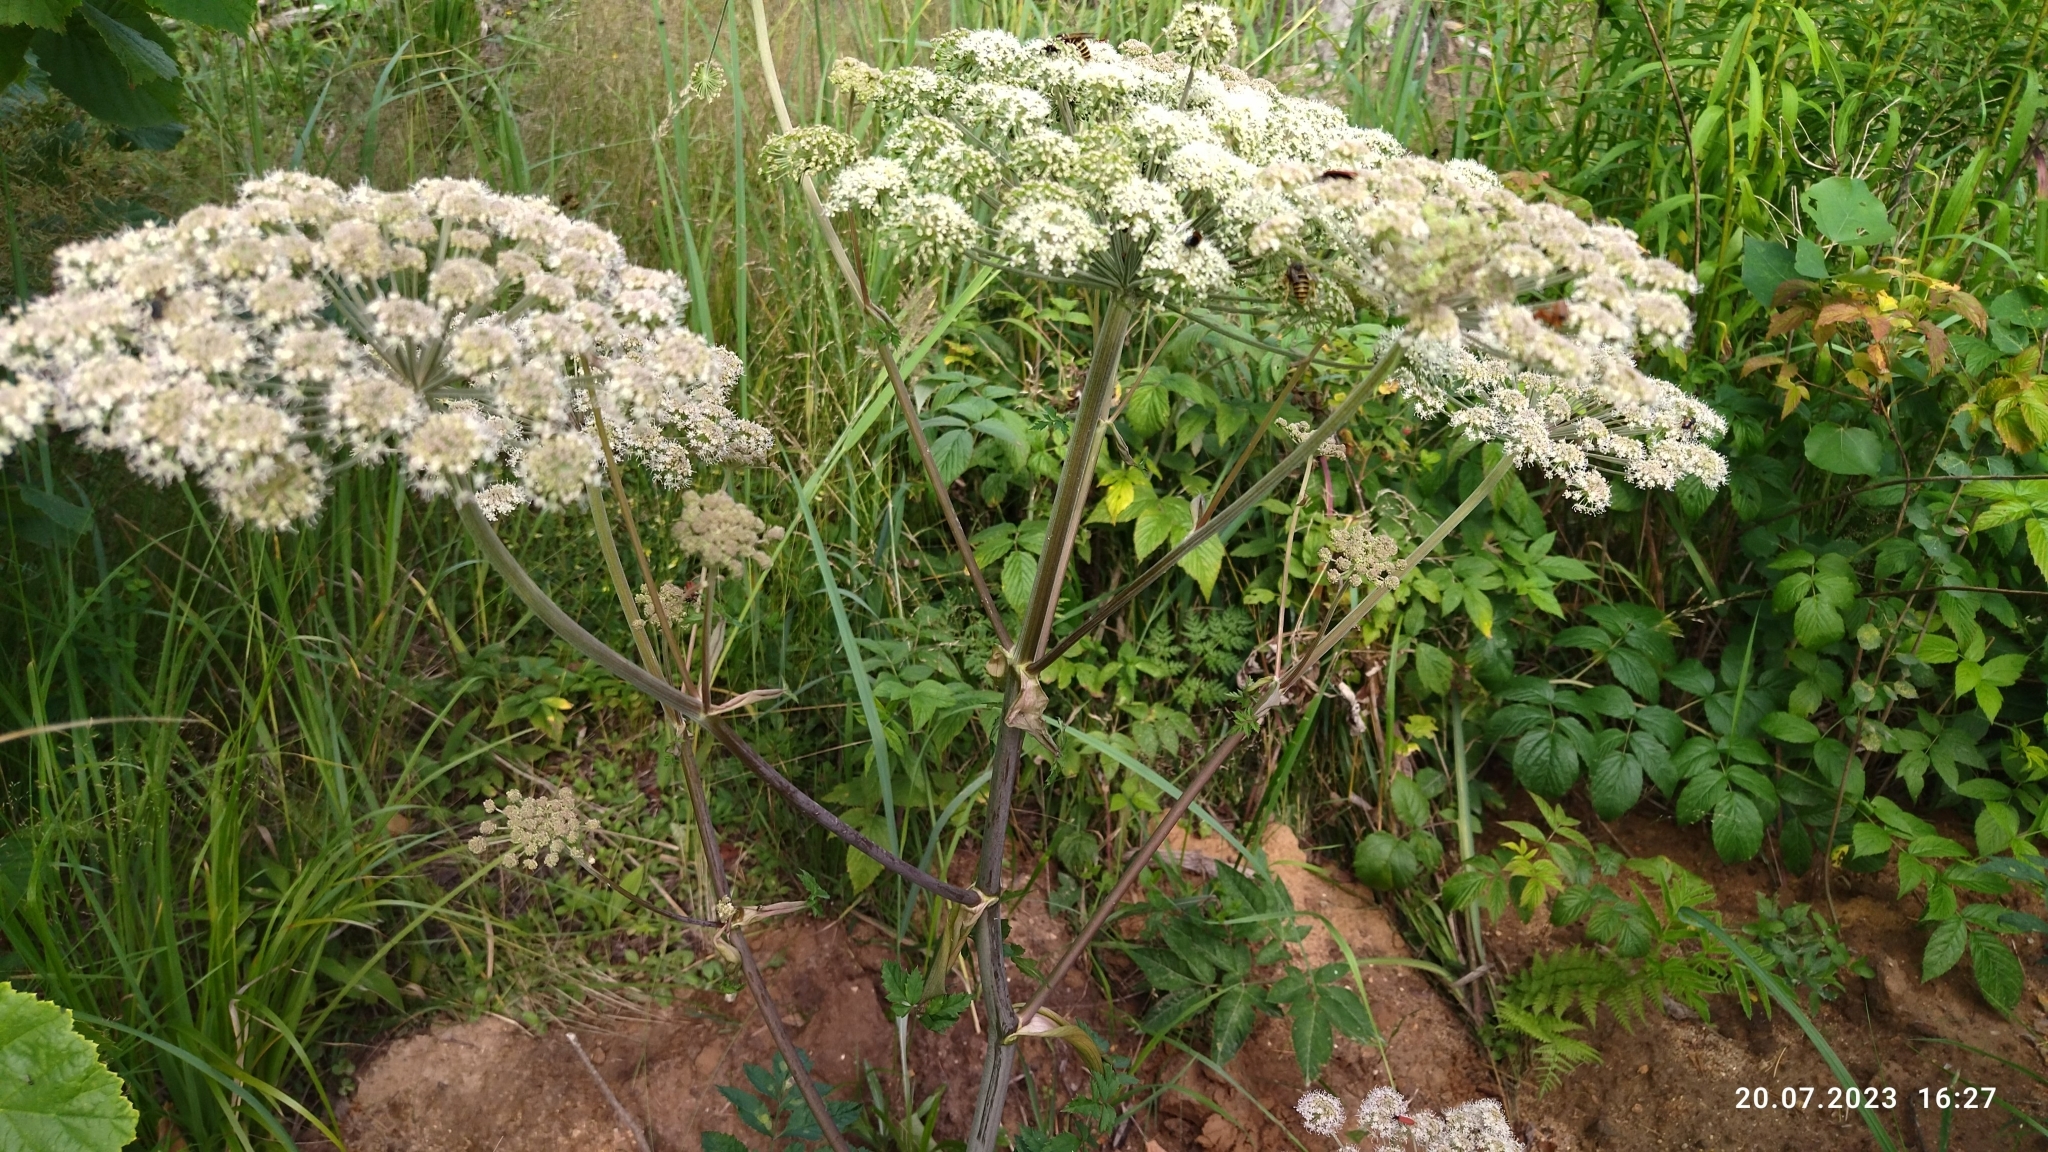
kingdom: Plantae
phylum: Tracheophyta
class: Magnoliopsida
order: Apiales
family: Apiaceae
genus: Angelica
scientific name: Angelica sylvestris
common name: Wild angelica
